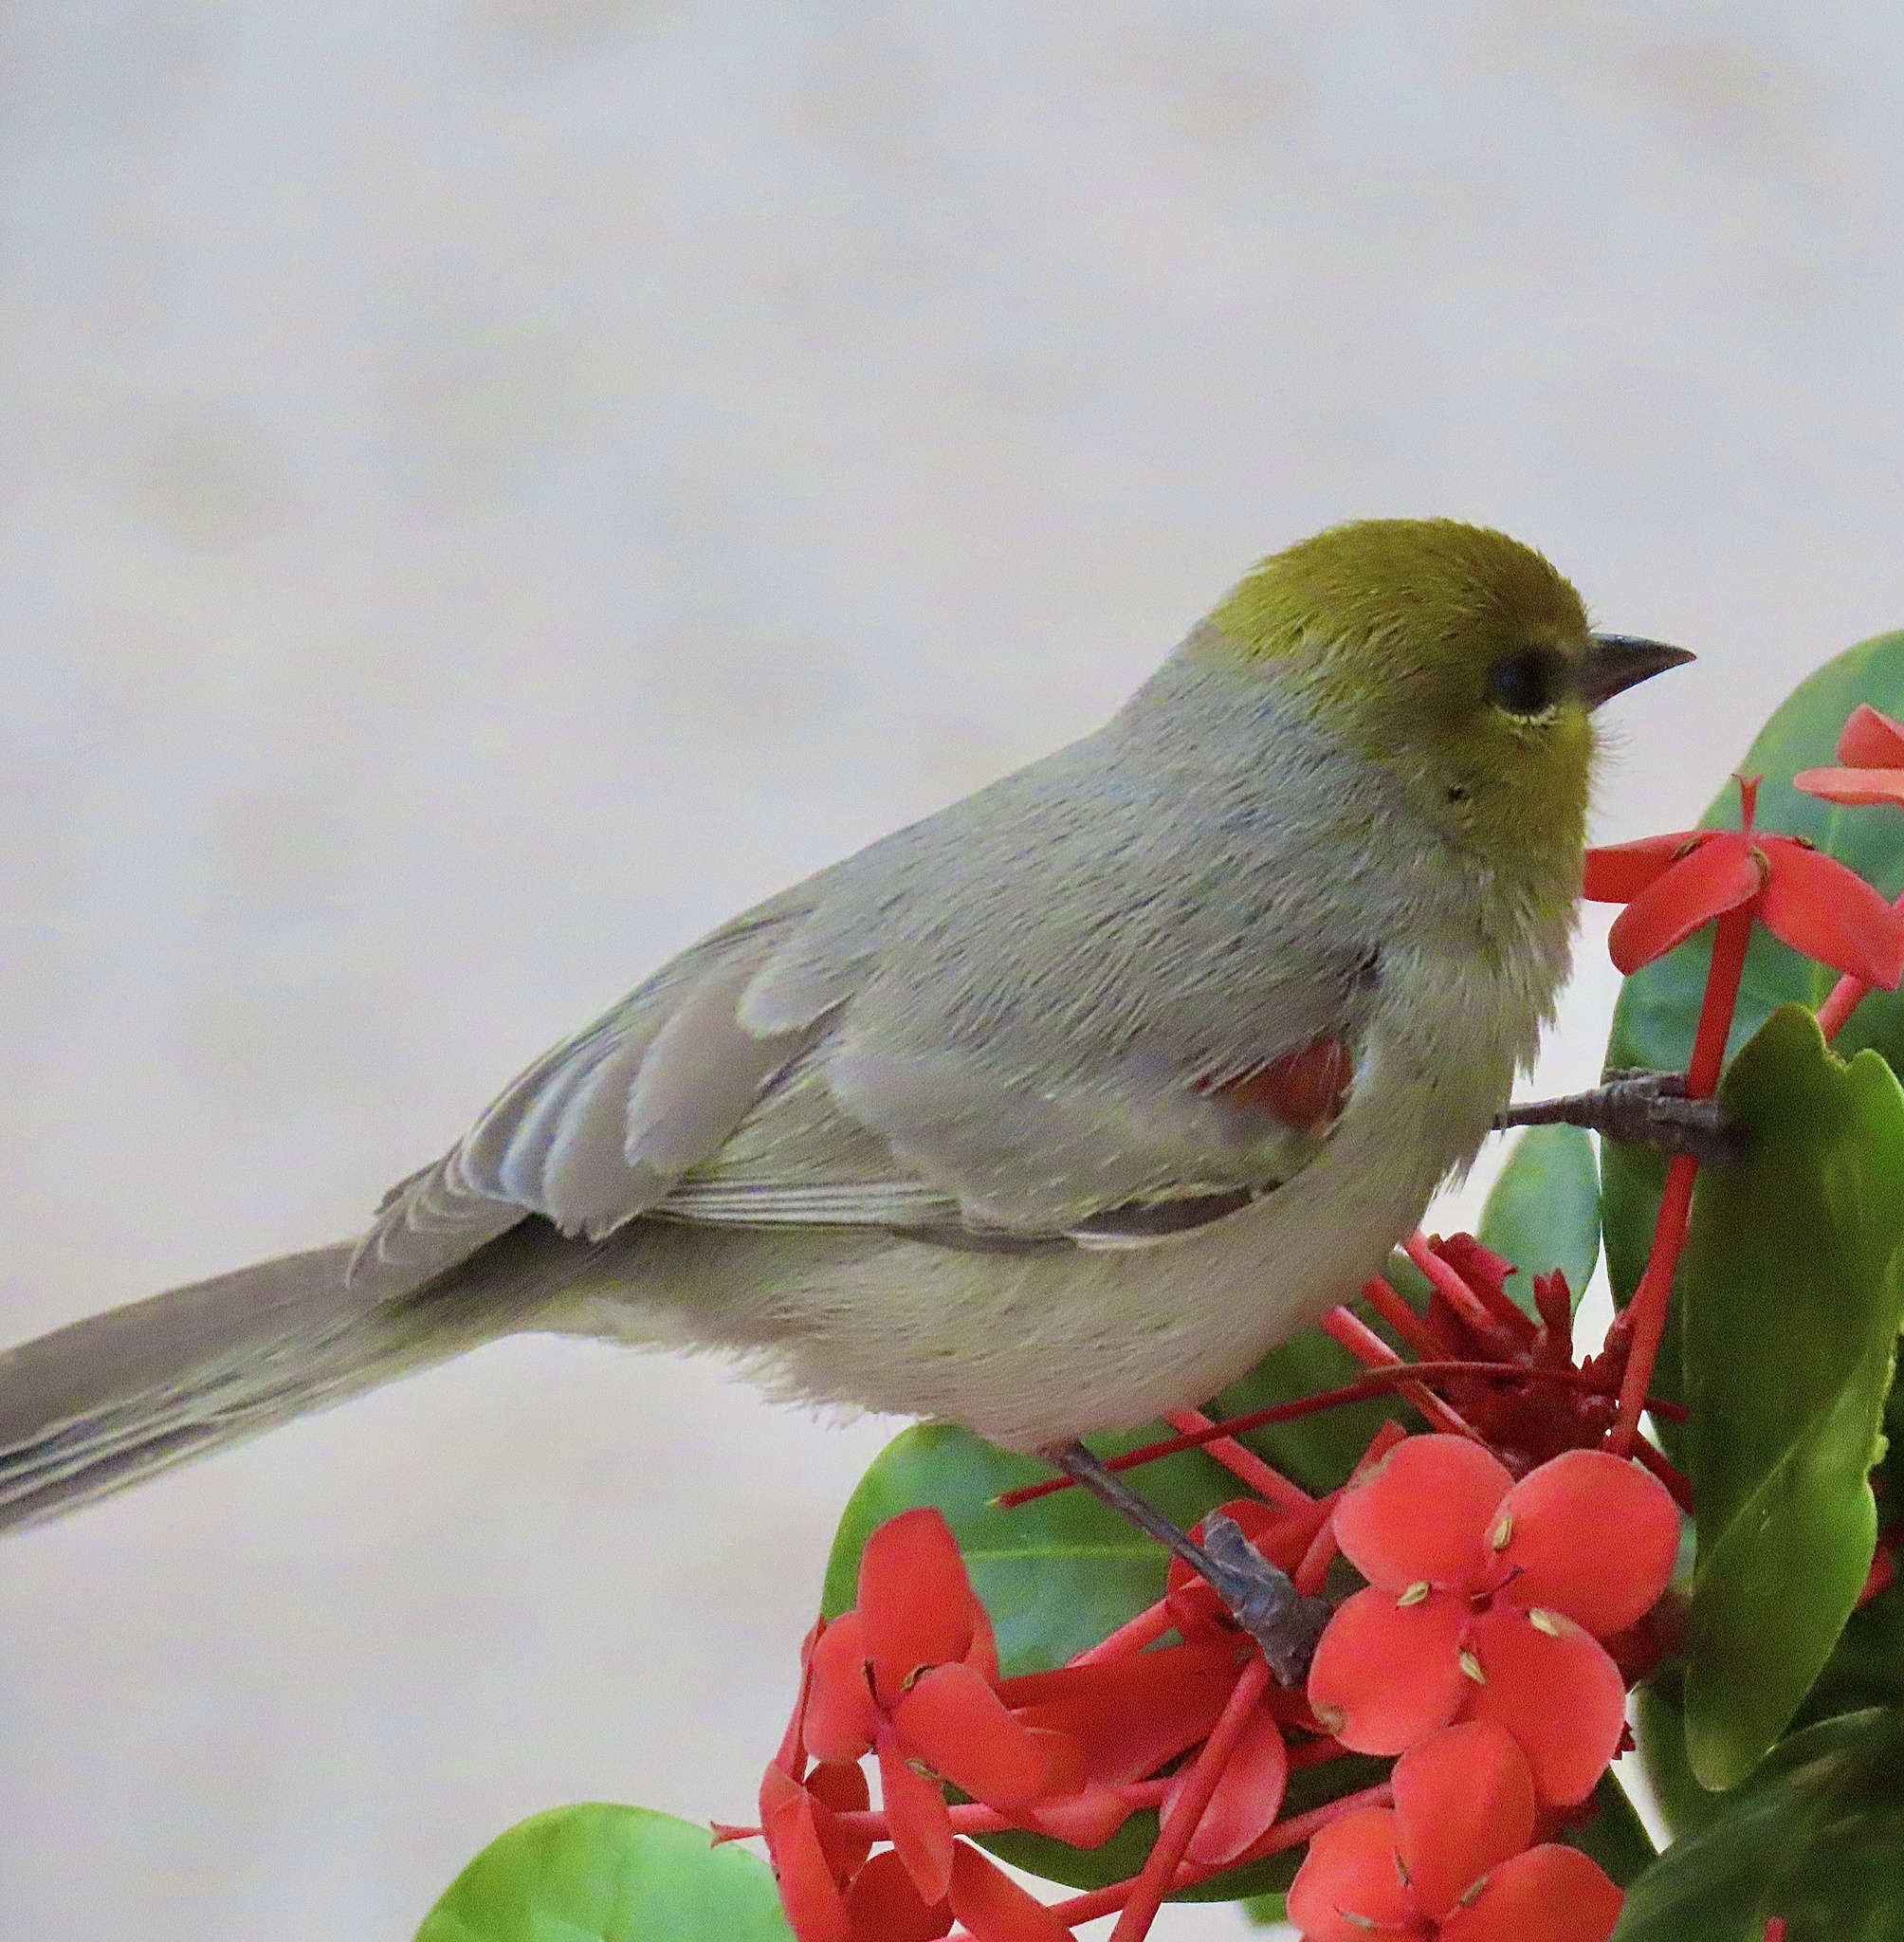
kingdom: Animalia
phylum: Chordata
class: Aves
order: Passeriformes
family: Remizidae
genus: Auriparus
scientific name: Auriparus flaviceps
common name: Verdin
